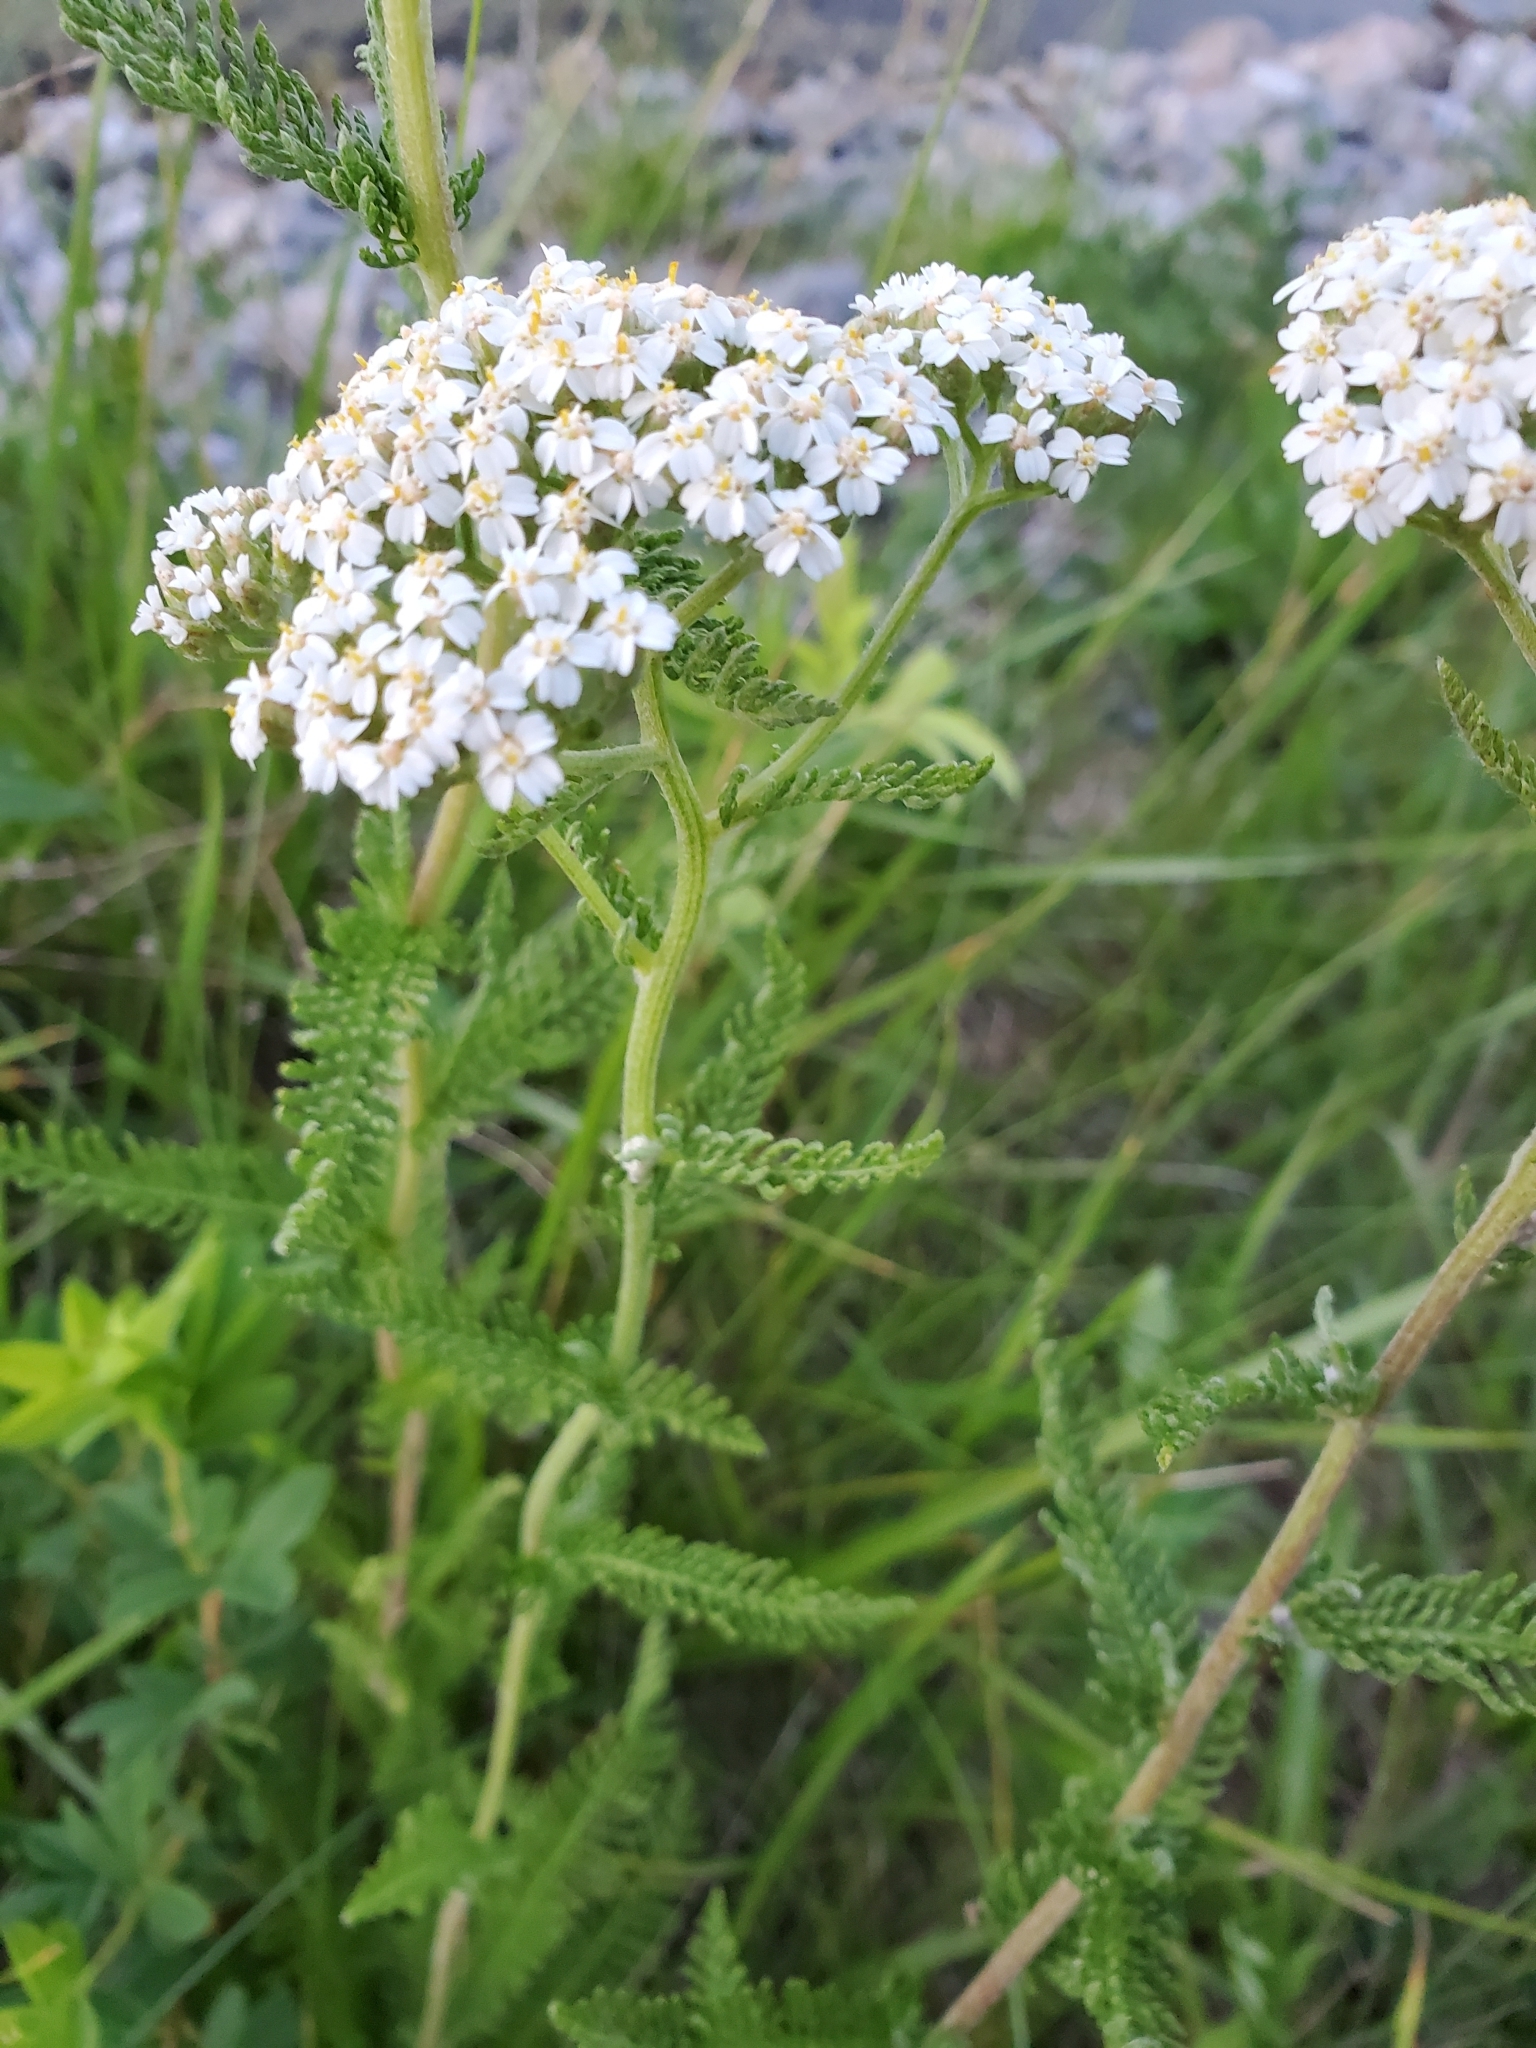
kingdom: Plantae
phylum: Tracheophyta
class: Magnoliopsida
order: Asterales
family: Asteraceae
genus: Achillea
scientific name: Achillea millefolium
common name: Yarrow
